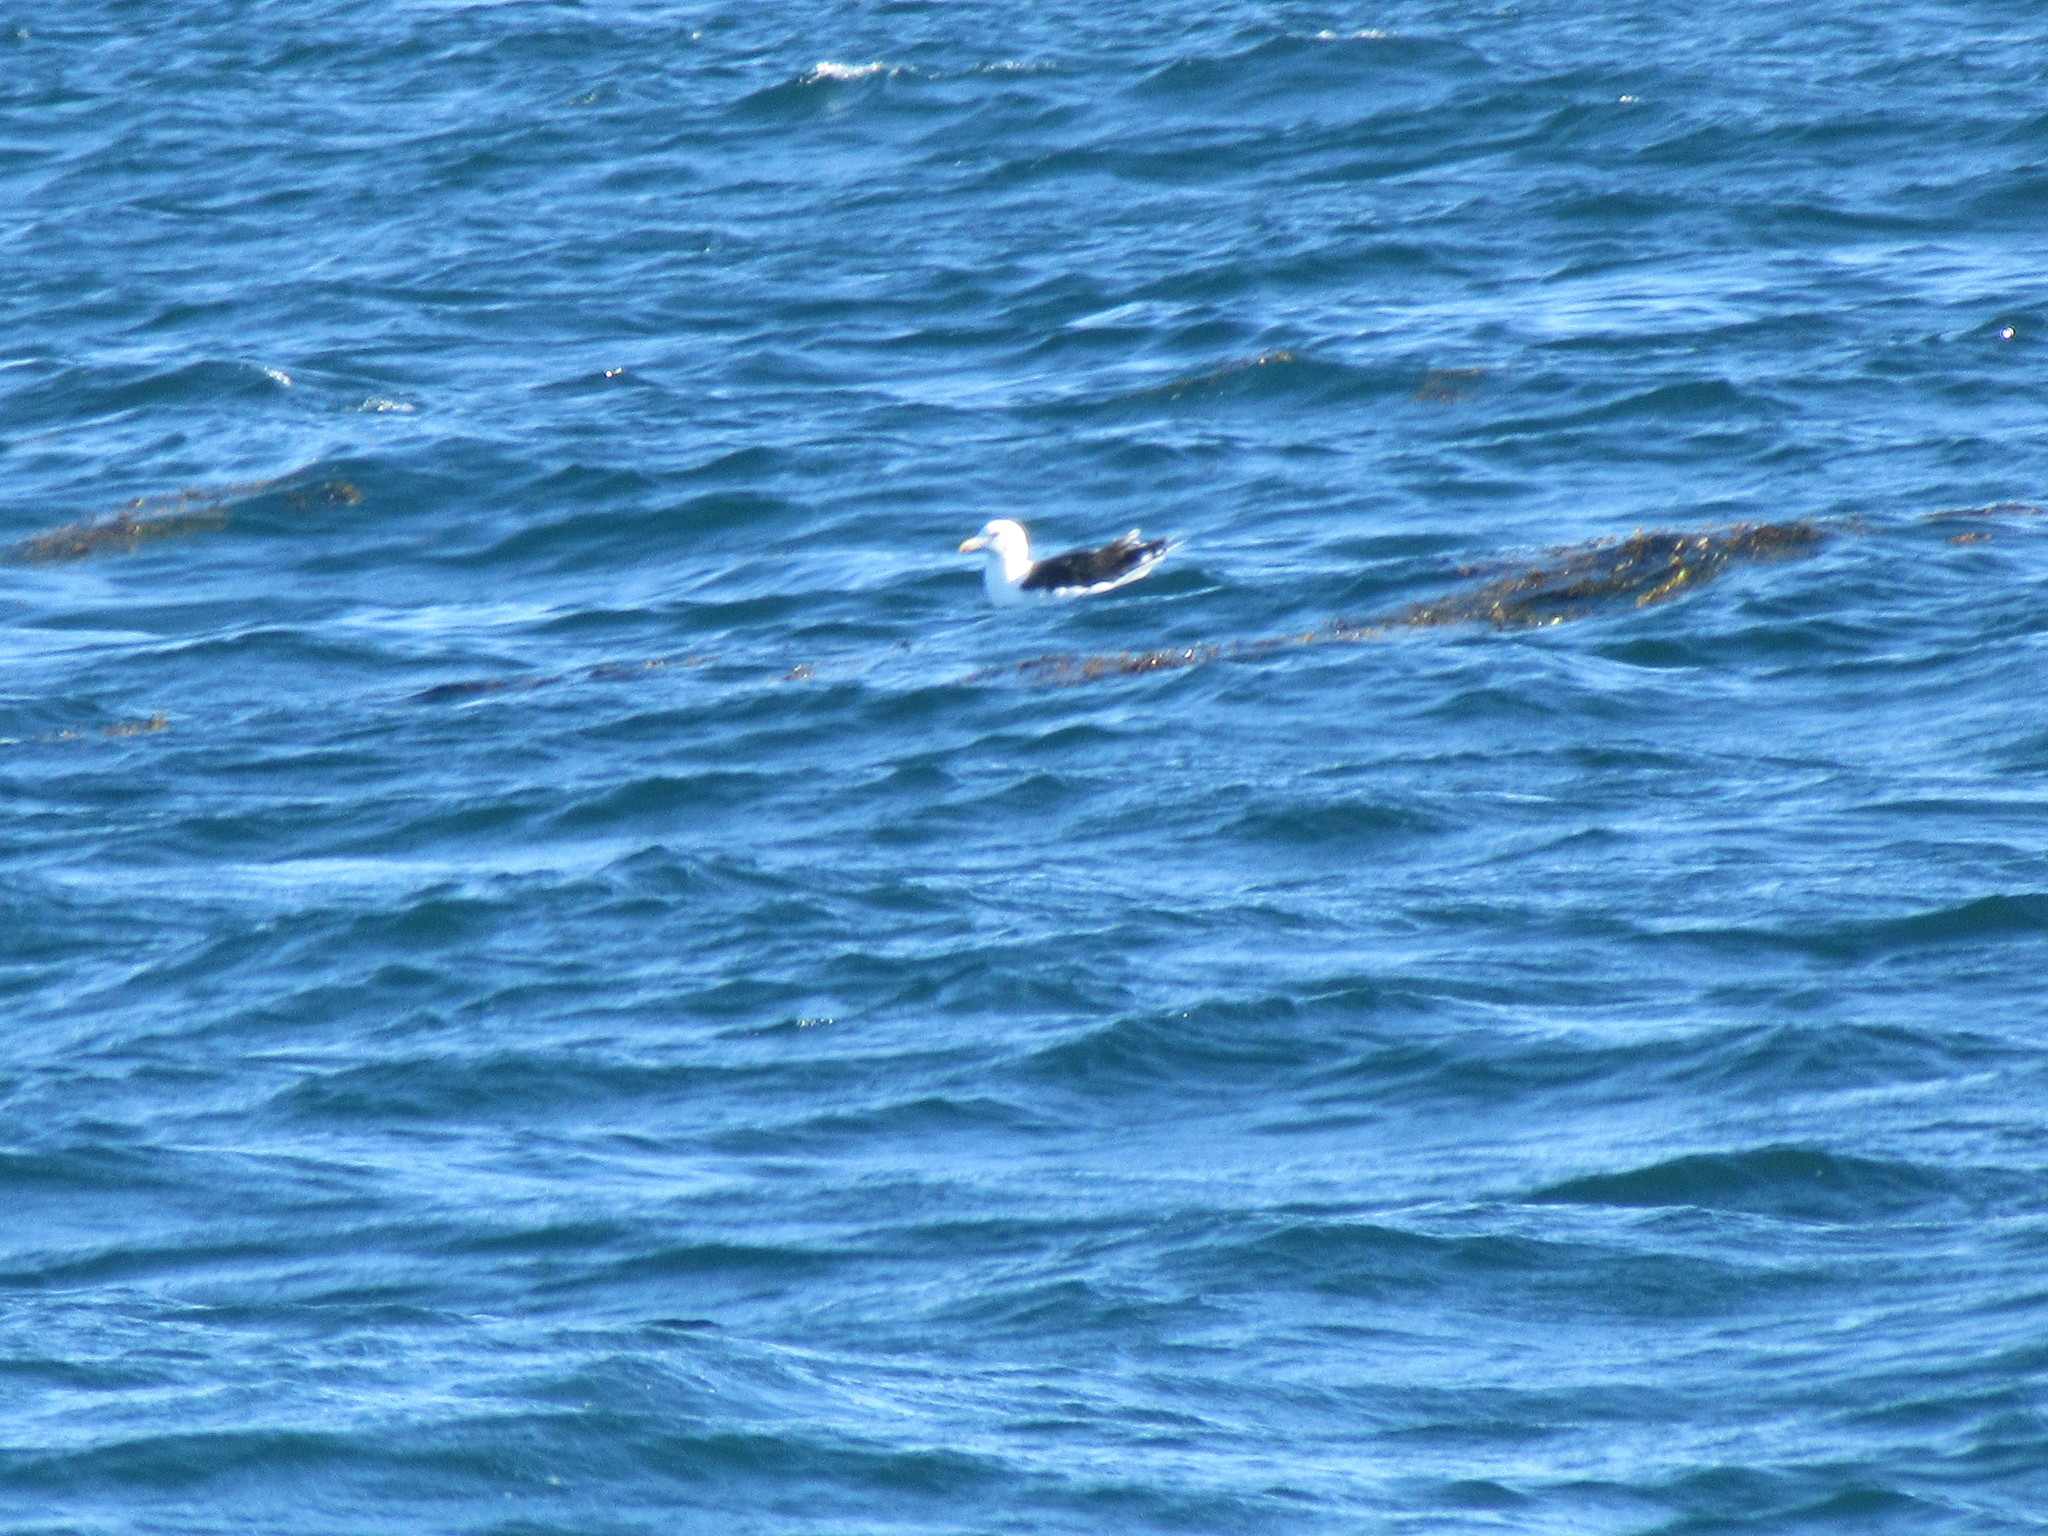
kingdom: Animalia
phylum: Chordata
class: Aves
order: Charadriiformes
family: Laridae
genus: Larus
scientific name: Larus marinus
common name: Great black-backed gull
